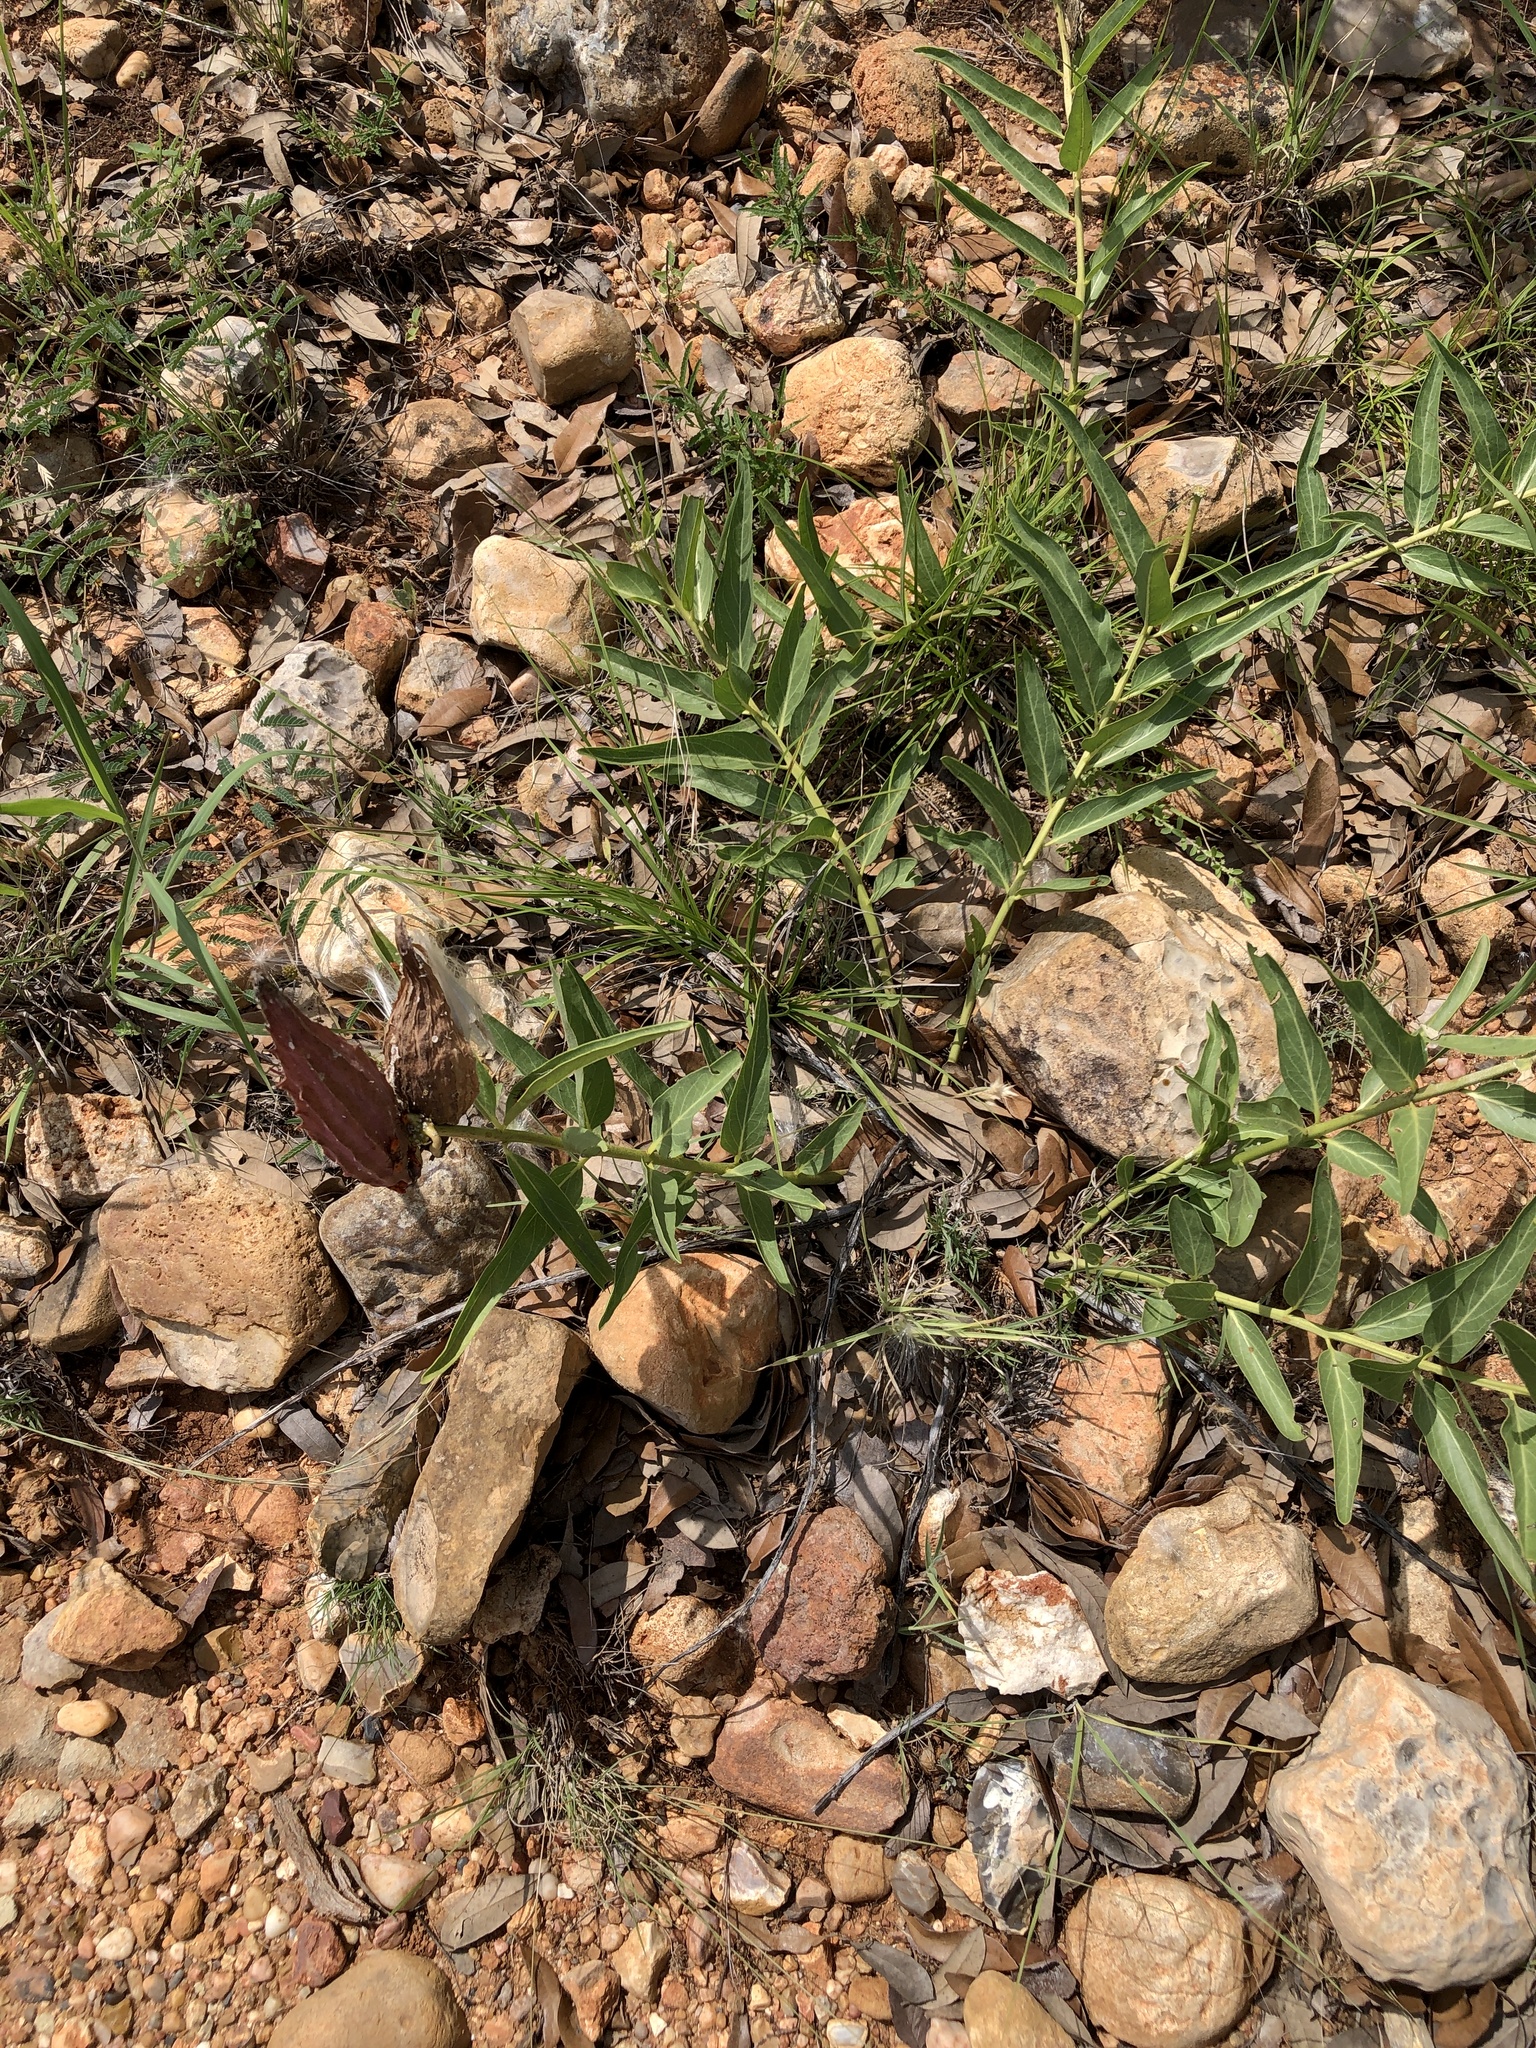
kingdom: Plantae
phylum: Tracheophyta
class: Magnoliopsida
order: Gentianales
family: Apocynaceae
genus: Asclepias
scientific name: Asclepias asperula
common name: Antelope horns
